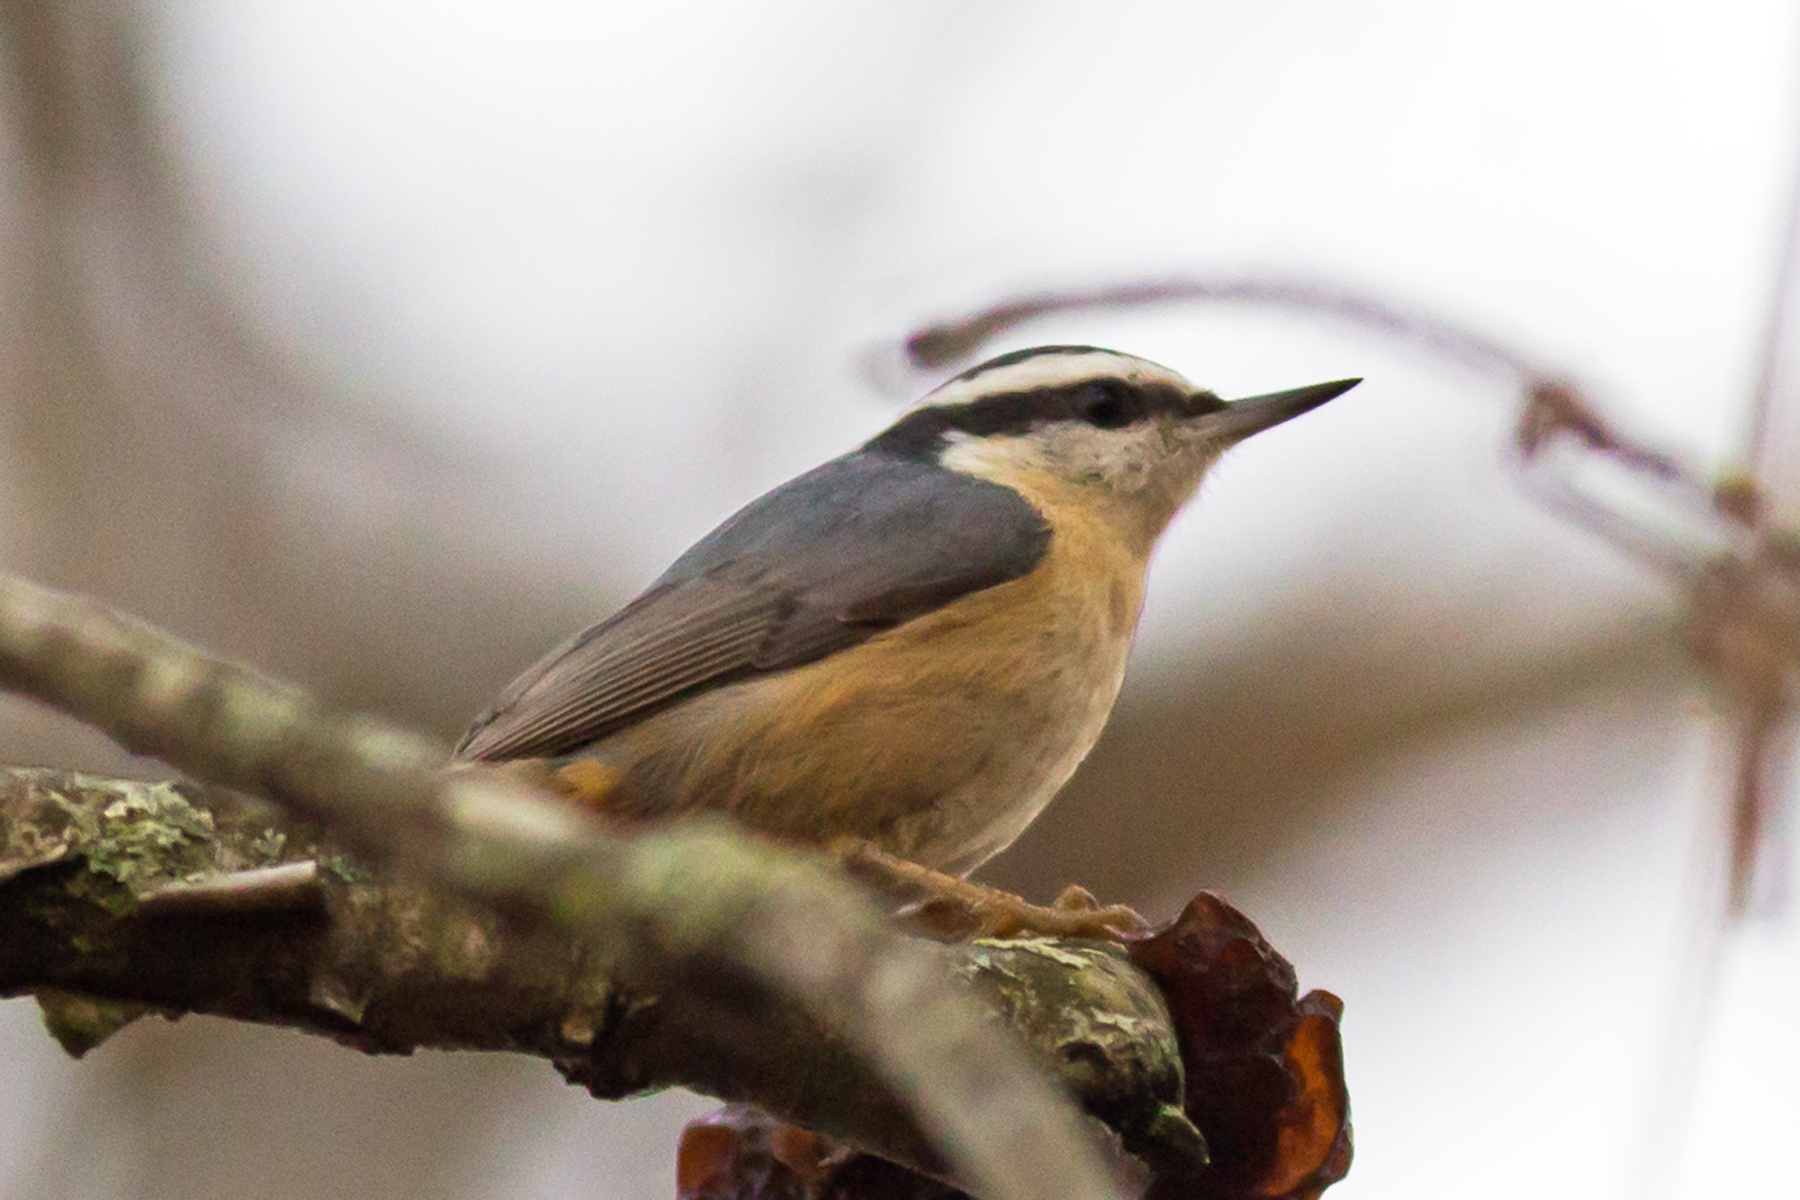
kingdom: Animalia
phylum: Chordata
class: Aves
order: Passeriformes
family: Sittidae
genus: Sitta
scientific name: Sitta canadensis
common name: Red-breasted nuthatch
